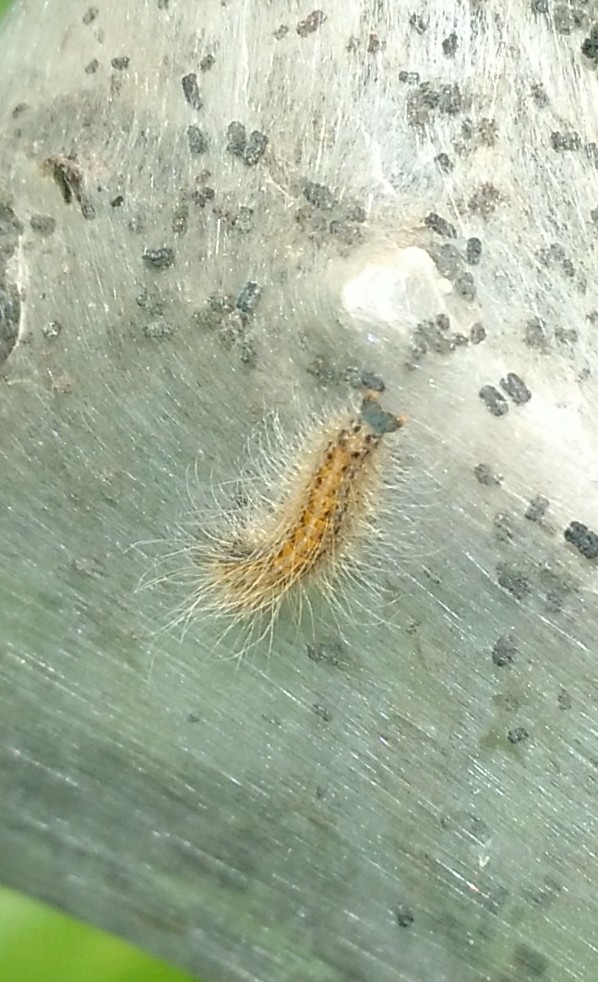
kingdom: Animalia
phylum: Arthropoda
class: Insecta
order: Lepidoptera
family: Lasiocampidae
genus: Malacosoma
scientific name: Malacosoma californica
